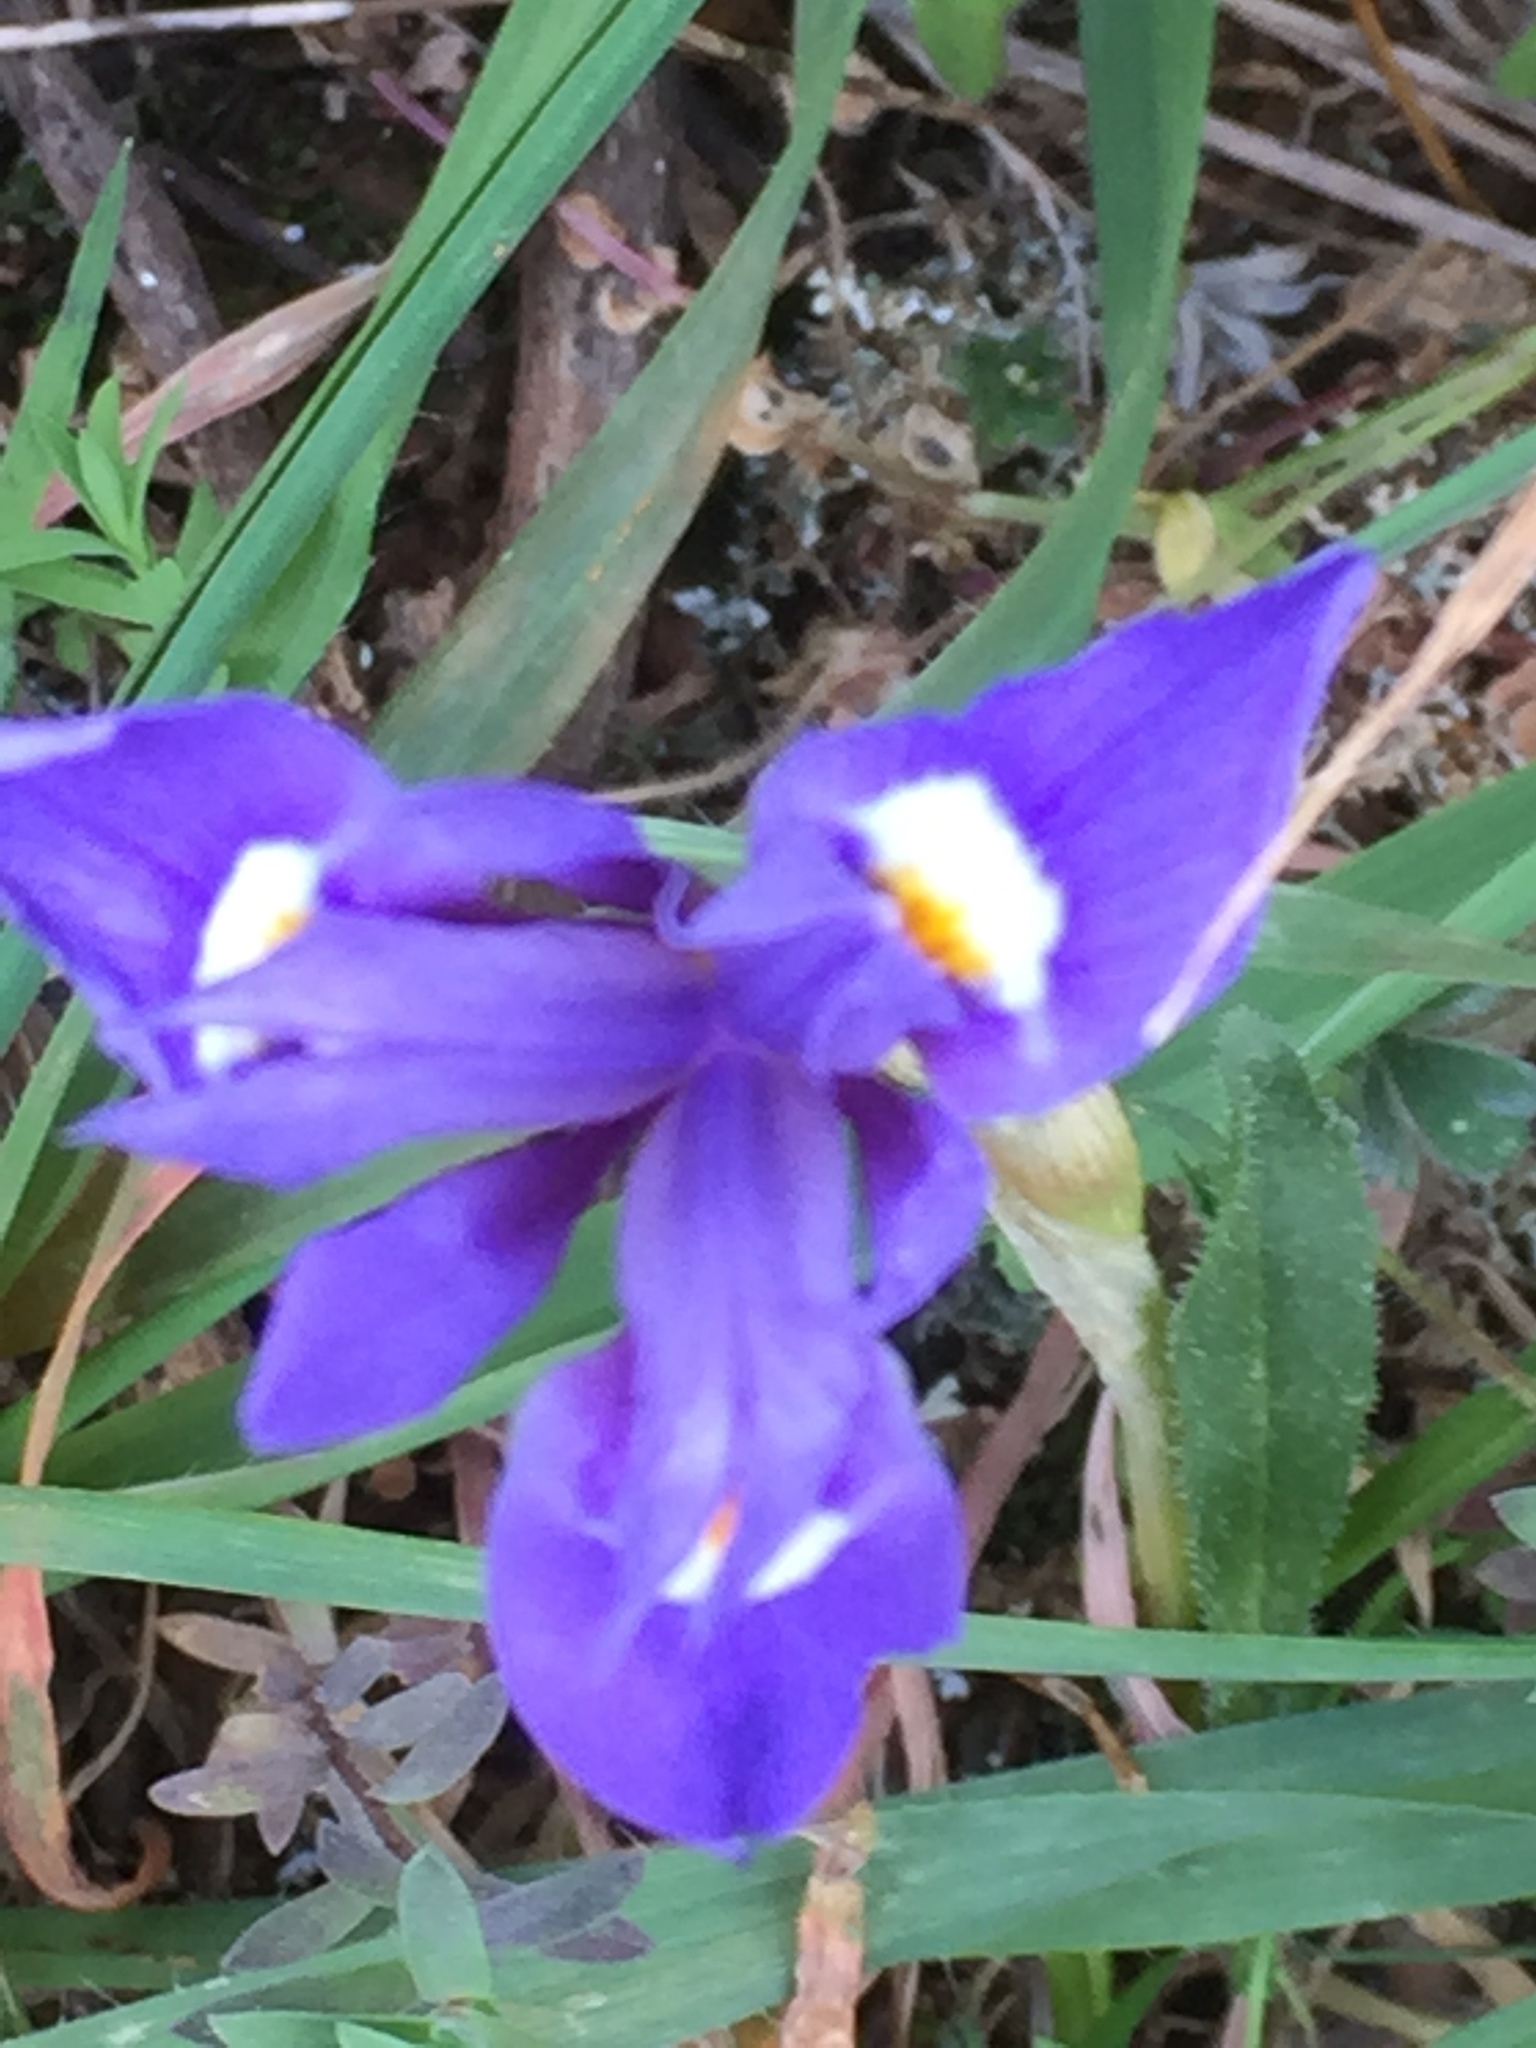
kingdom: Plantae
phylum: Tracheophyta
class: Liliopsida
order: Asparagales
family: Iridaceae
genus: Moraea
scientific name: Moraea sisyrinchium
